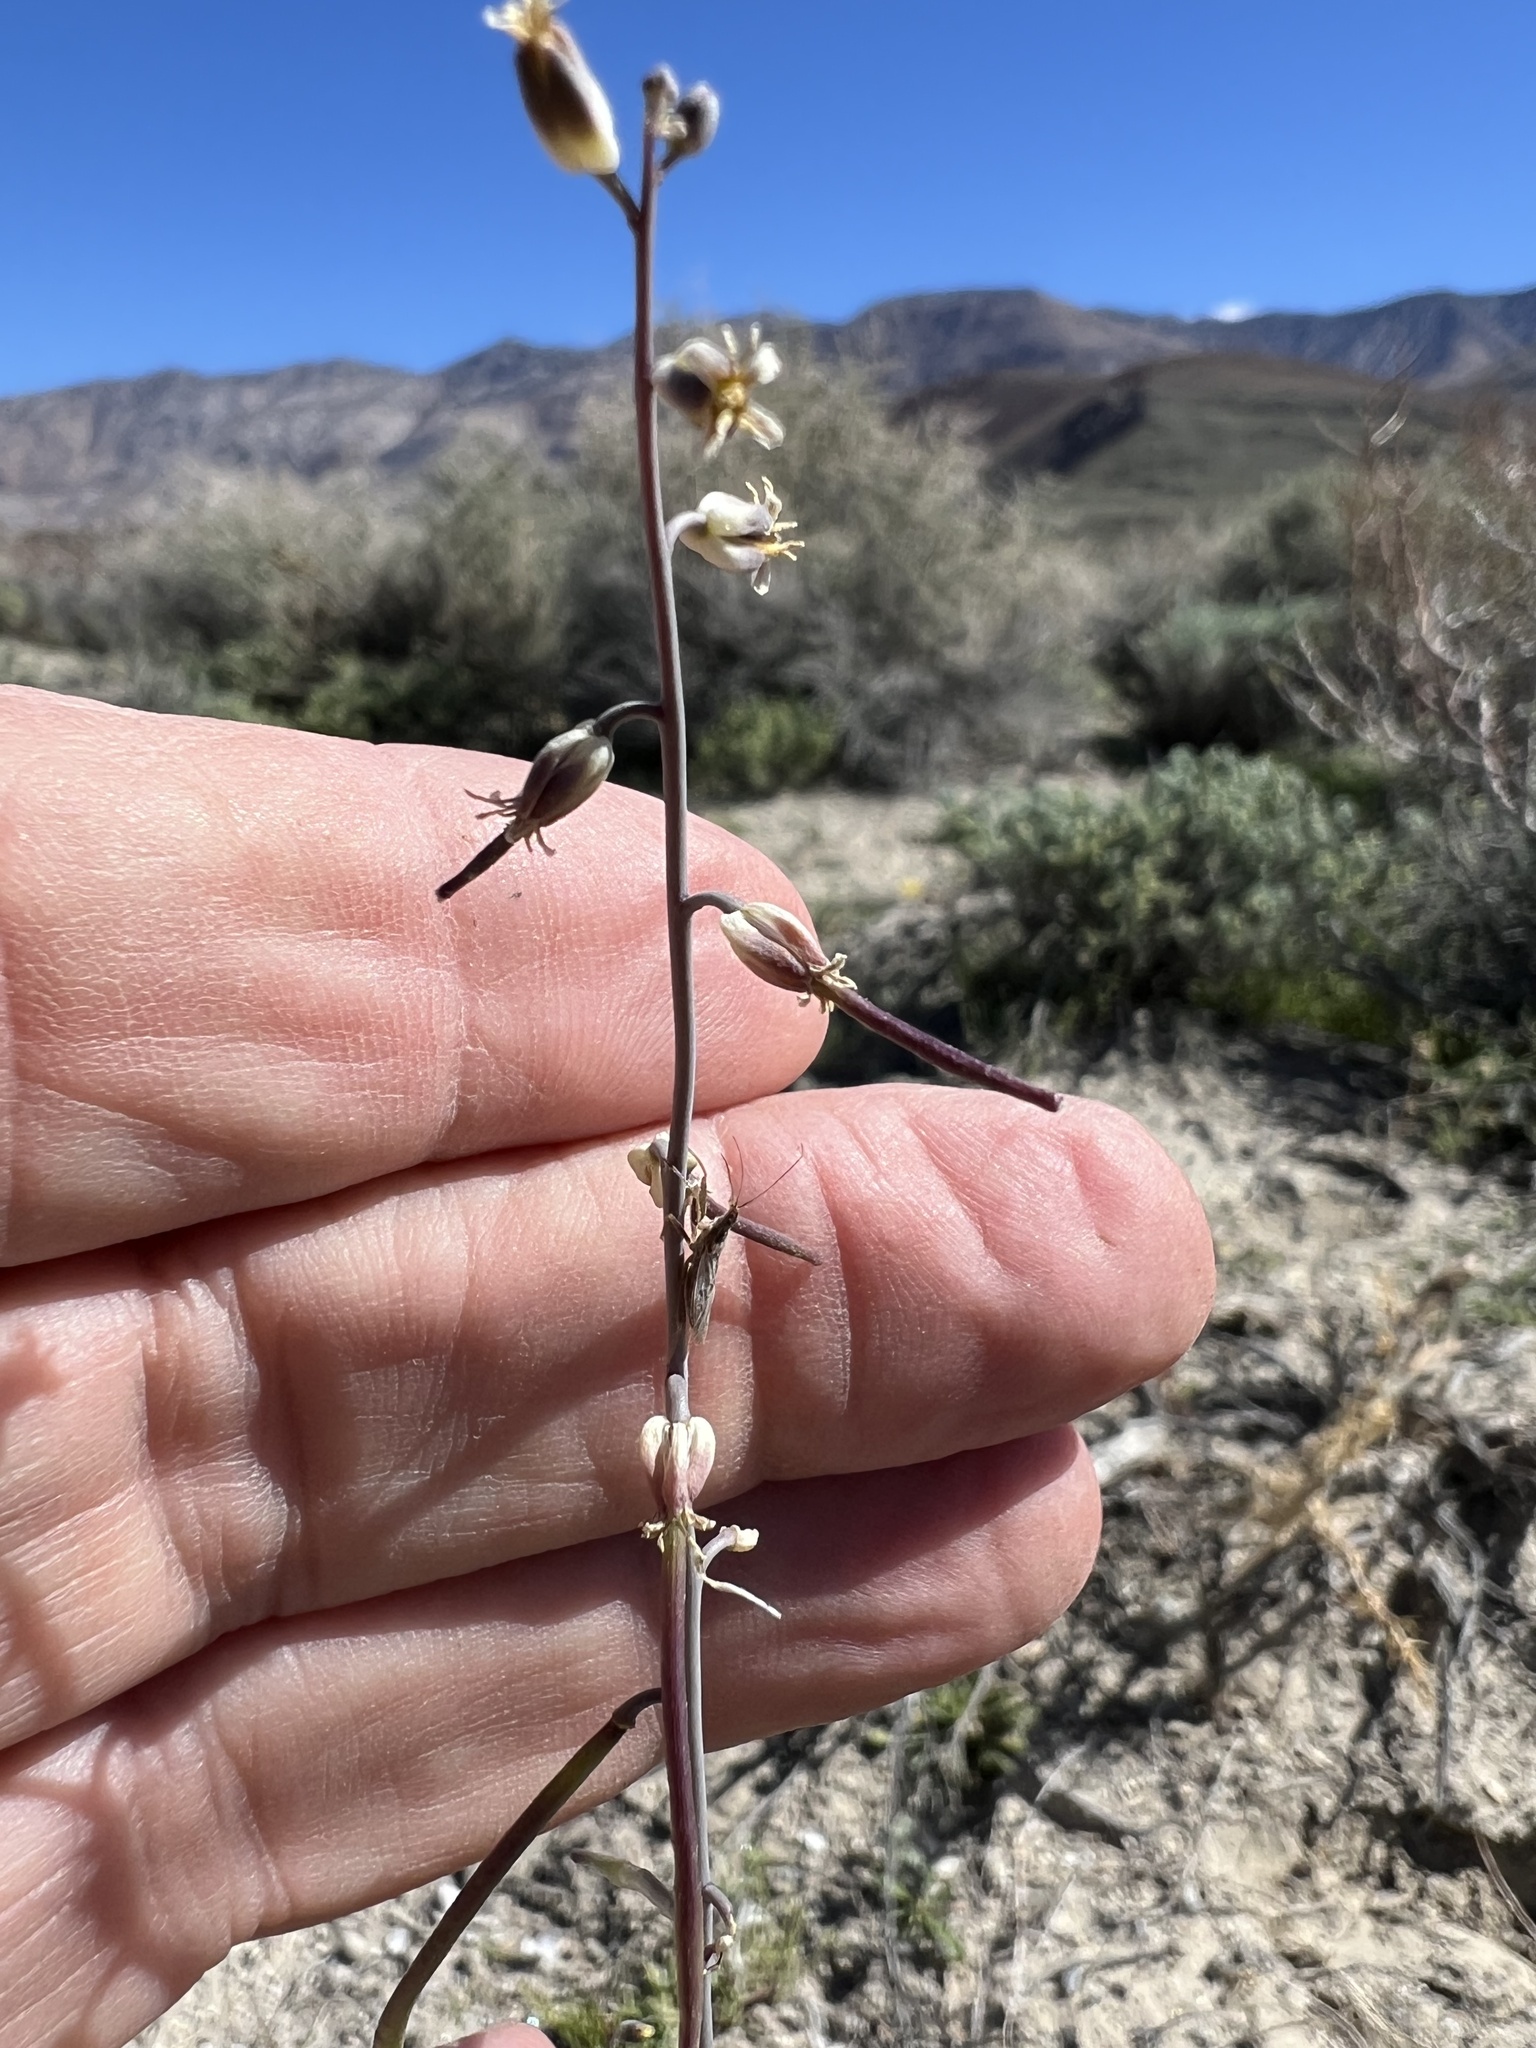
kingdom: Plantae
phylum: Tracheophyta
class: Magnoliopsida
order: Brassicales
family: Brassicaceae
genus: Streptanthus
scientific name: Streptanthus longirostris
